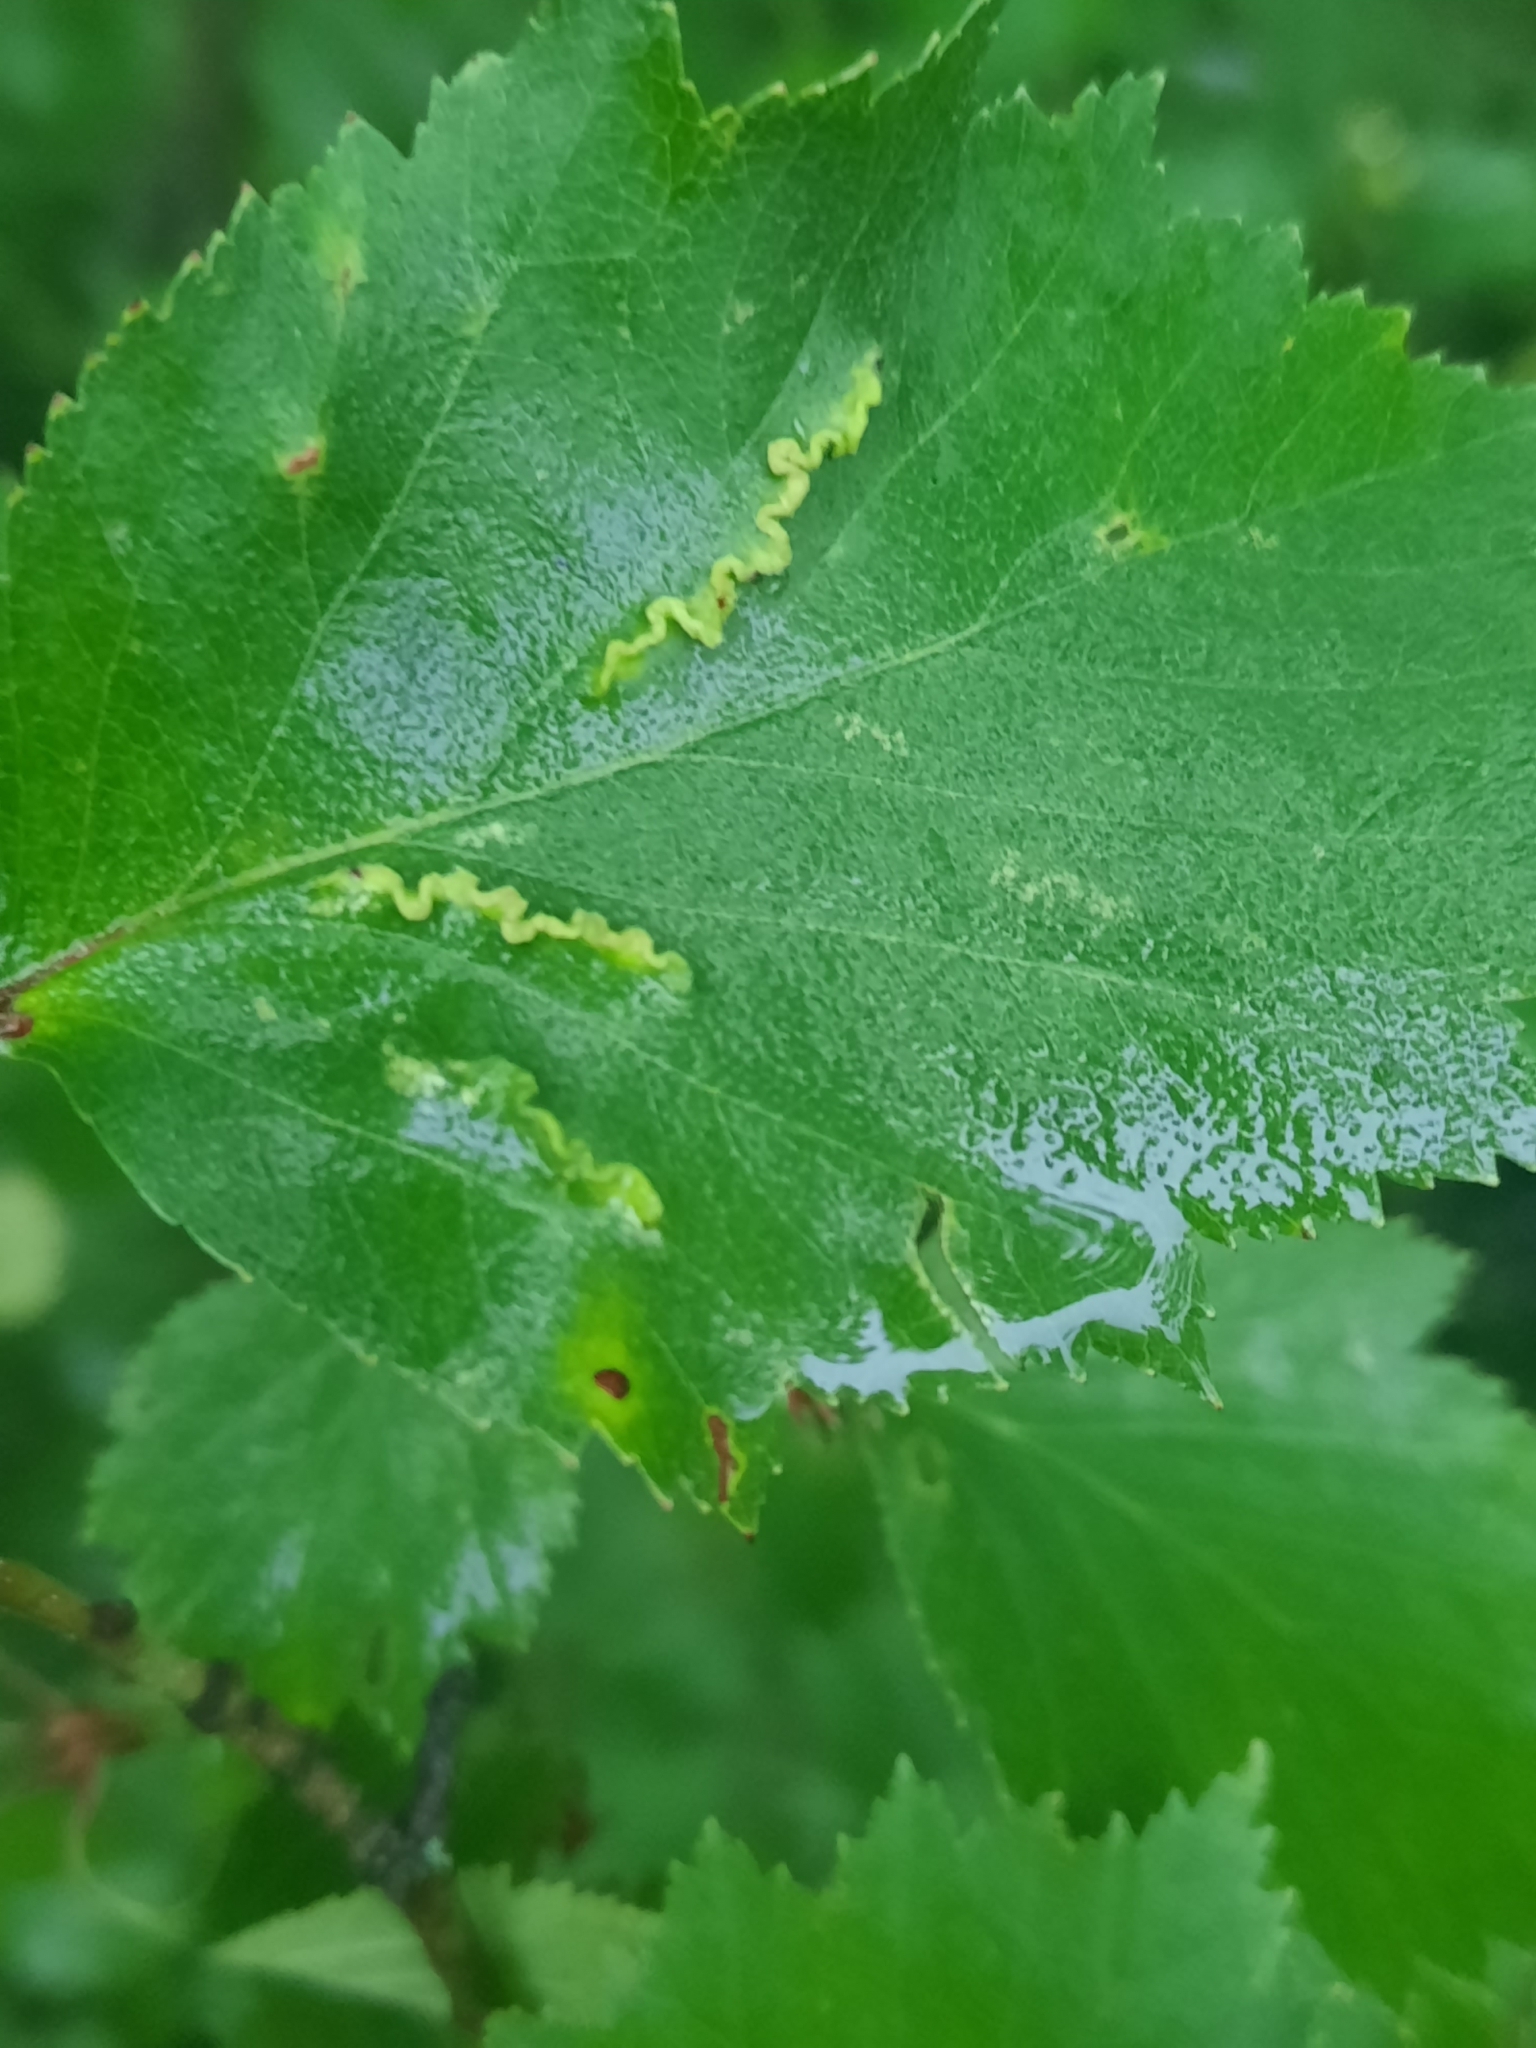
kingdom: Animalia
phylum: Arthropoda
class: Insecta
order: Diptera
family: Cecidomyiidae
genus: Blaesodiplosis
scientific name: Blaesodiplosis crataegifolia
